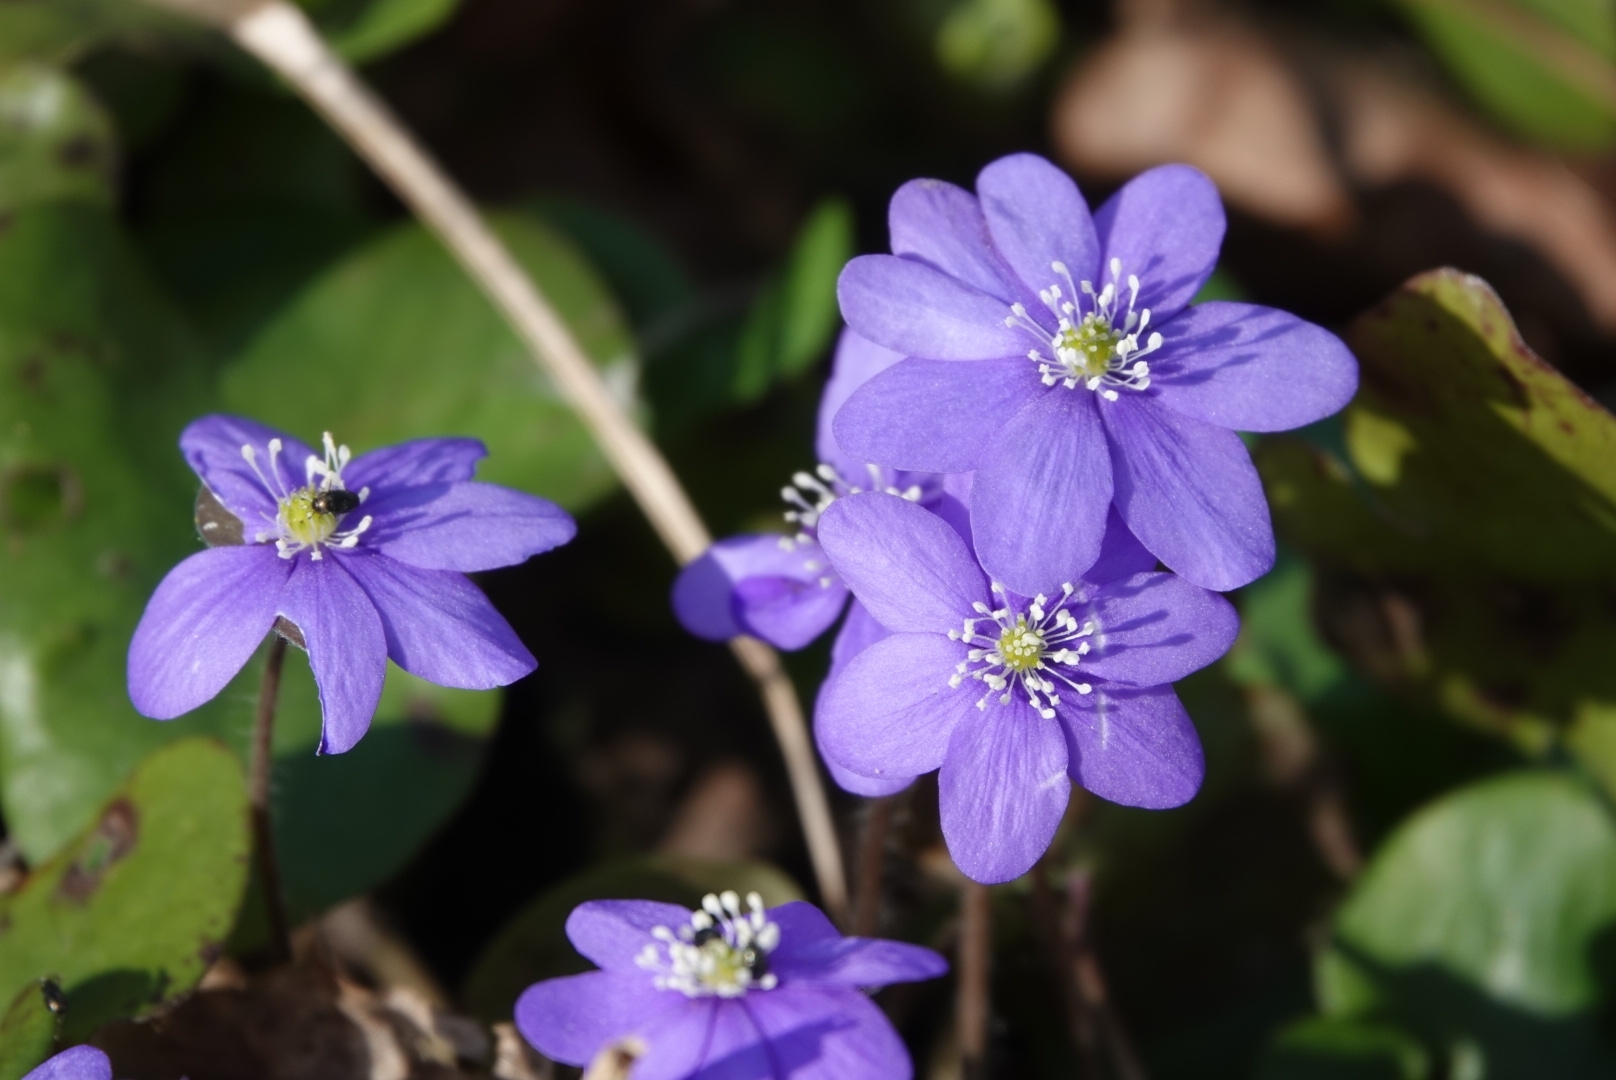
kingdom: Plantae
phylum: Tracheophyta
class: Magnoliopsida
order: Ranunculales
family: Ranunculaceae
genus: Hepatica
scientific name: Hepatica nobilis
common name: Liverleaf
